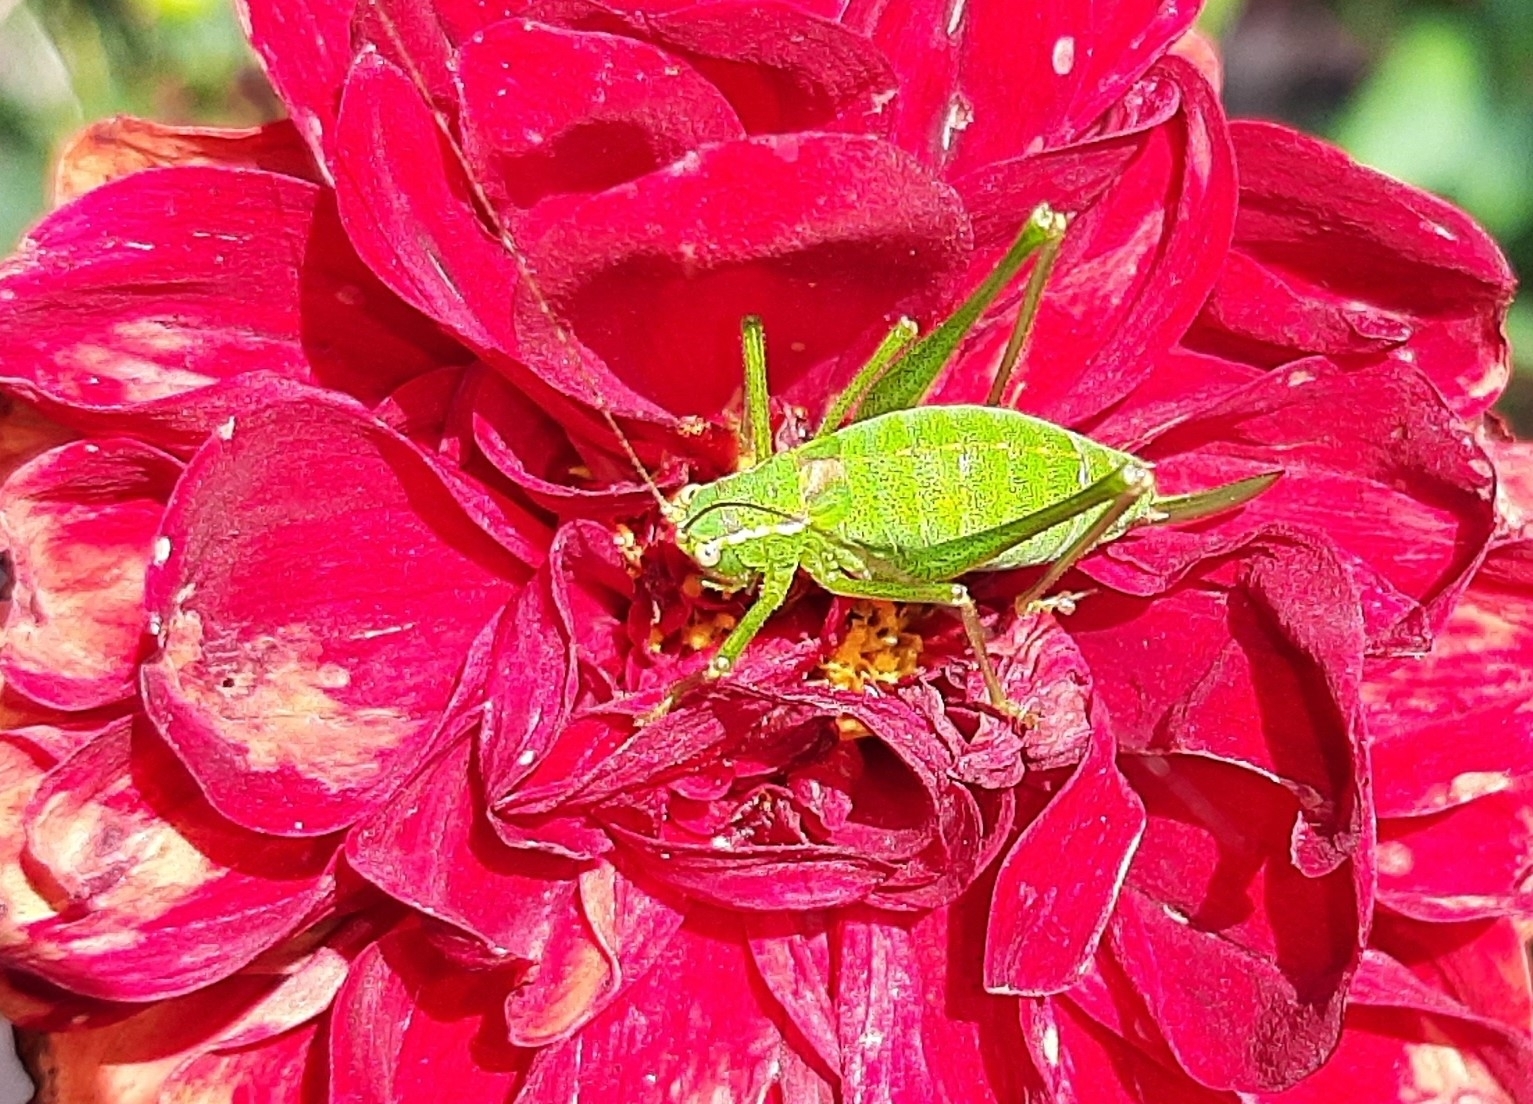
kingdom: Animalia
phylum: Arthropoda
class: Insecta
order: Orthoptera
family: Tettigoniidae
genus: Leptophyes
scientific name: Leptophyes punctatissima
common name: Speckled bush-cricket
